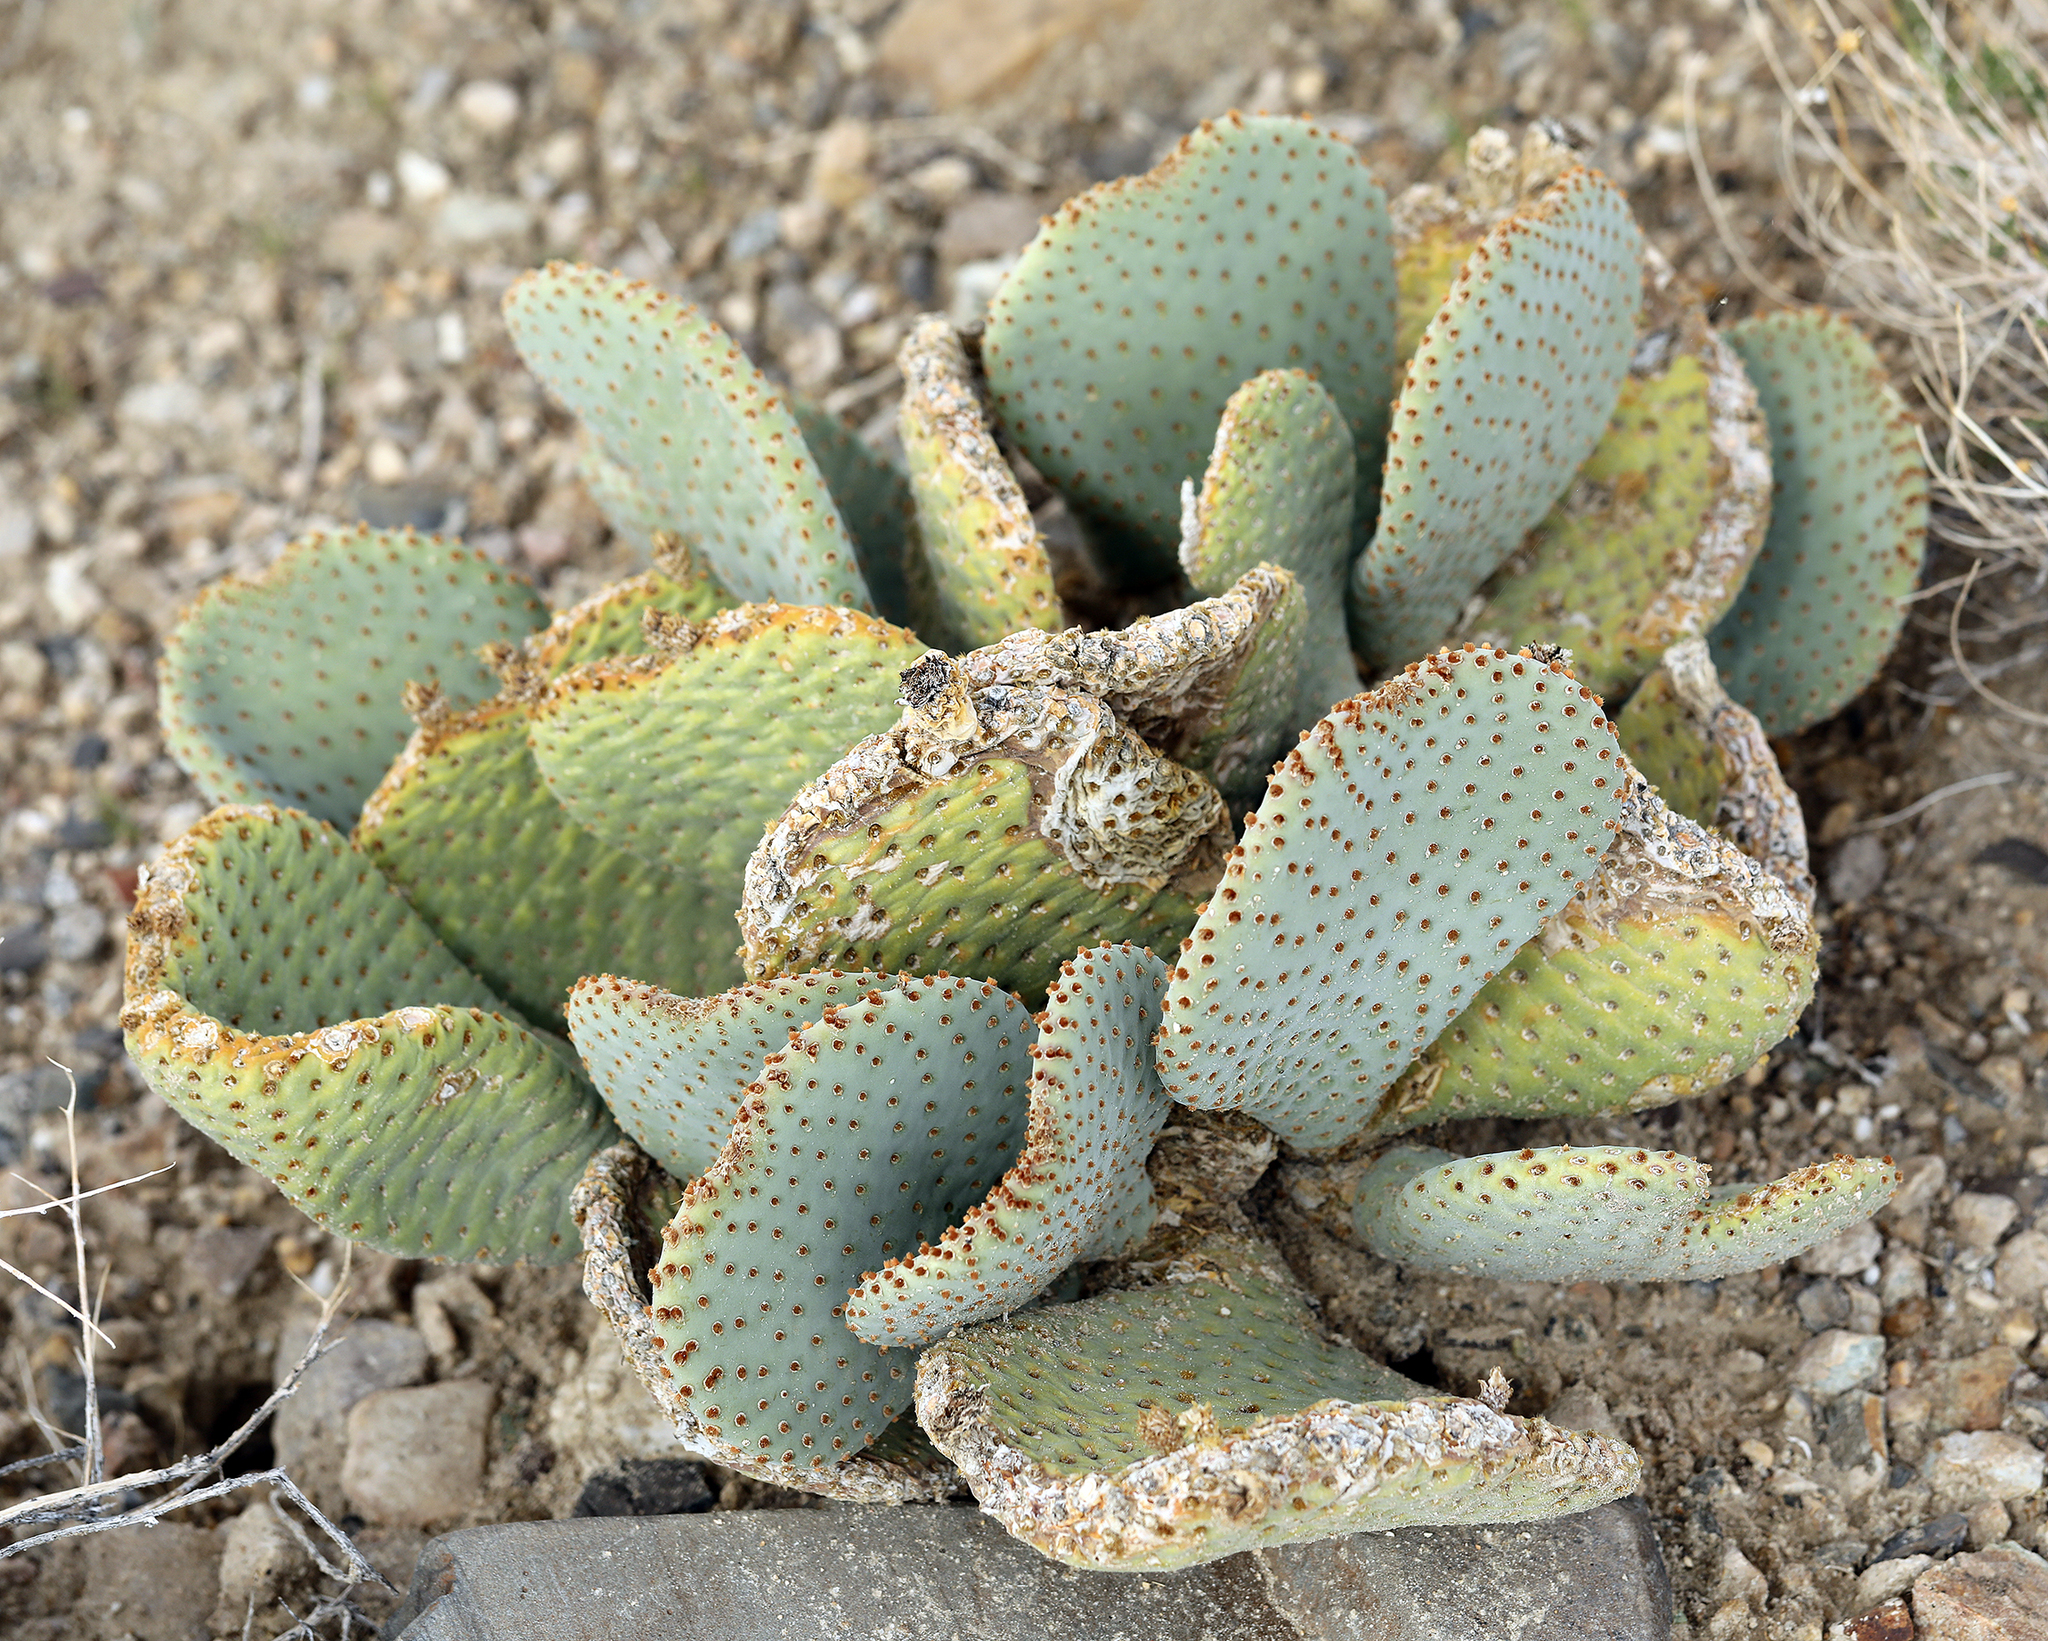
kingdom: Plantae
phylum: Tracheophyta
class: Magnoliopsida
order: Caryophyllales
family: Cactaceae
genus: Opuntia
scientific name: Opuntia basilaris
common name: Beavertail prickly-pear
